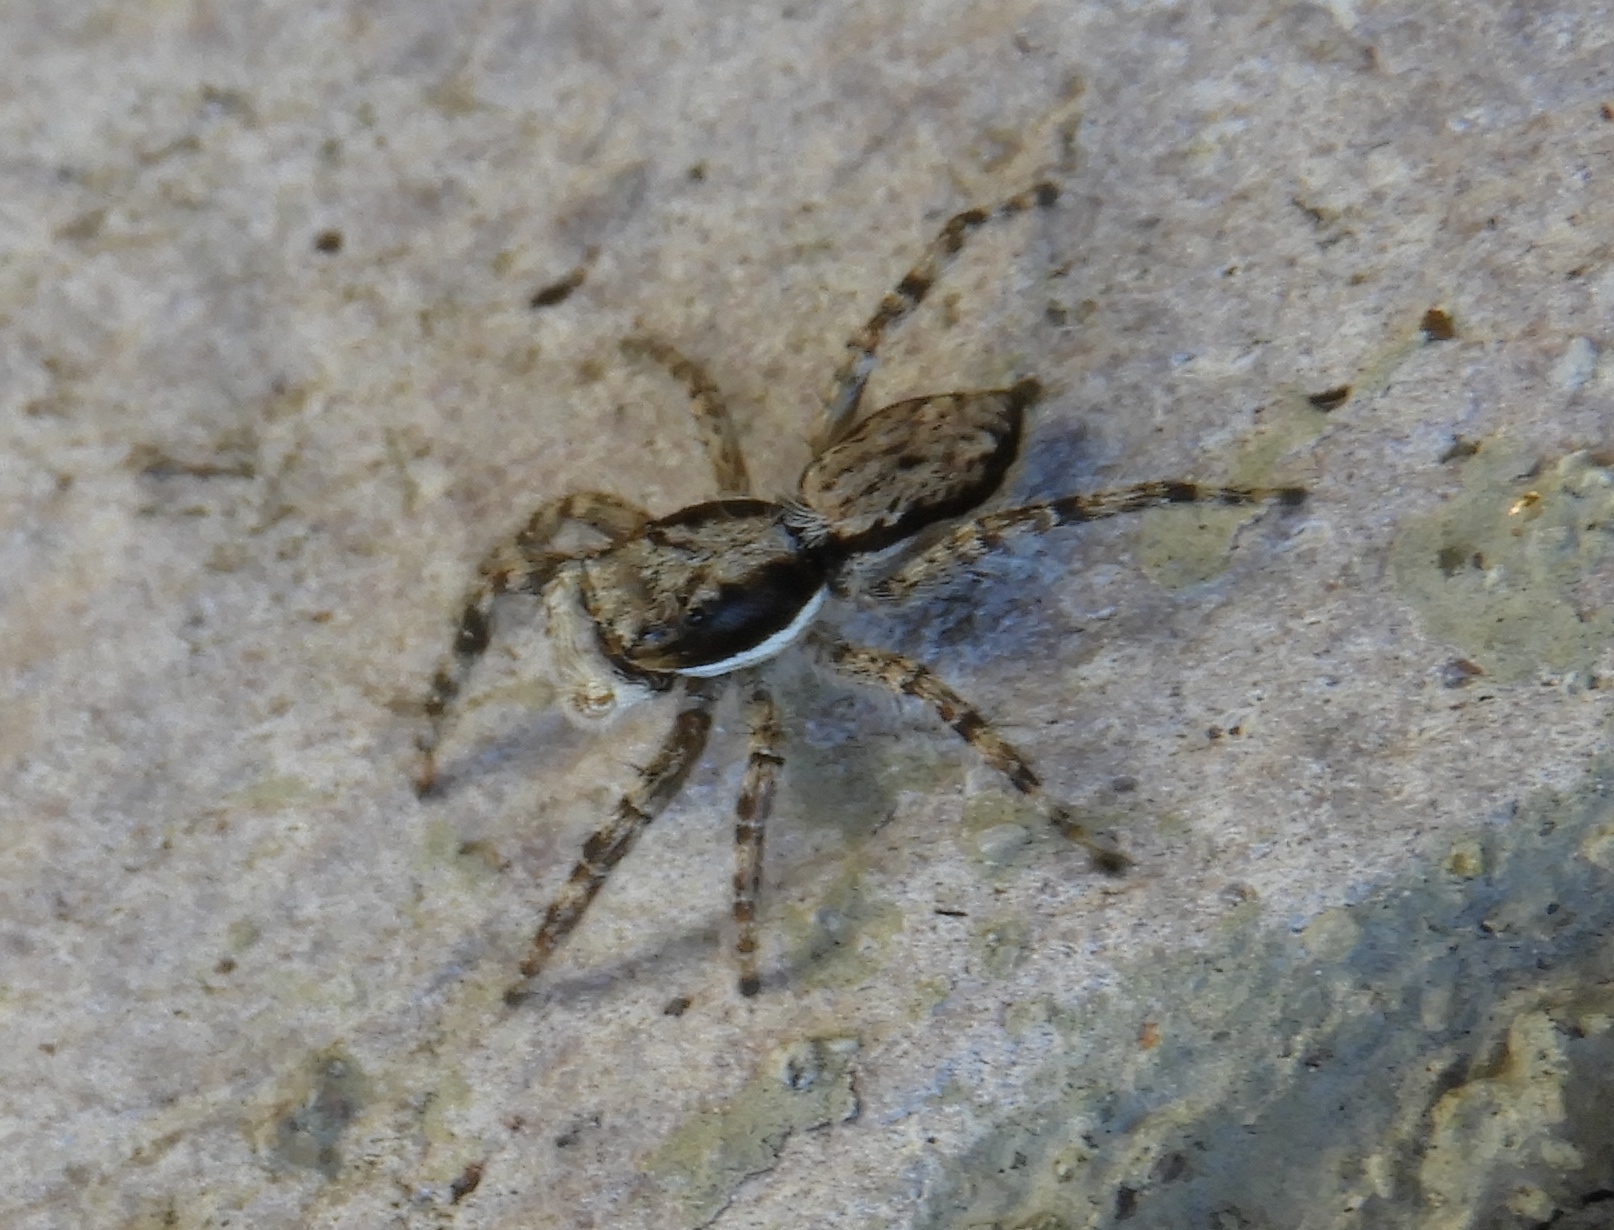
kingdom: Animalia
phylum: Arthropoda
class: Arachnida
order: Araneae
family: Salticidae
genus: Menemerus
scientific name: Menemerus bivittatus
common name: Gray wall jumper
